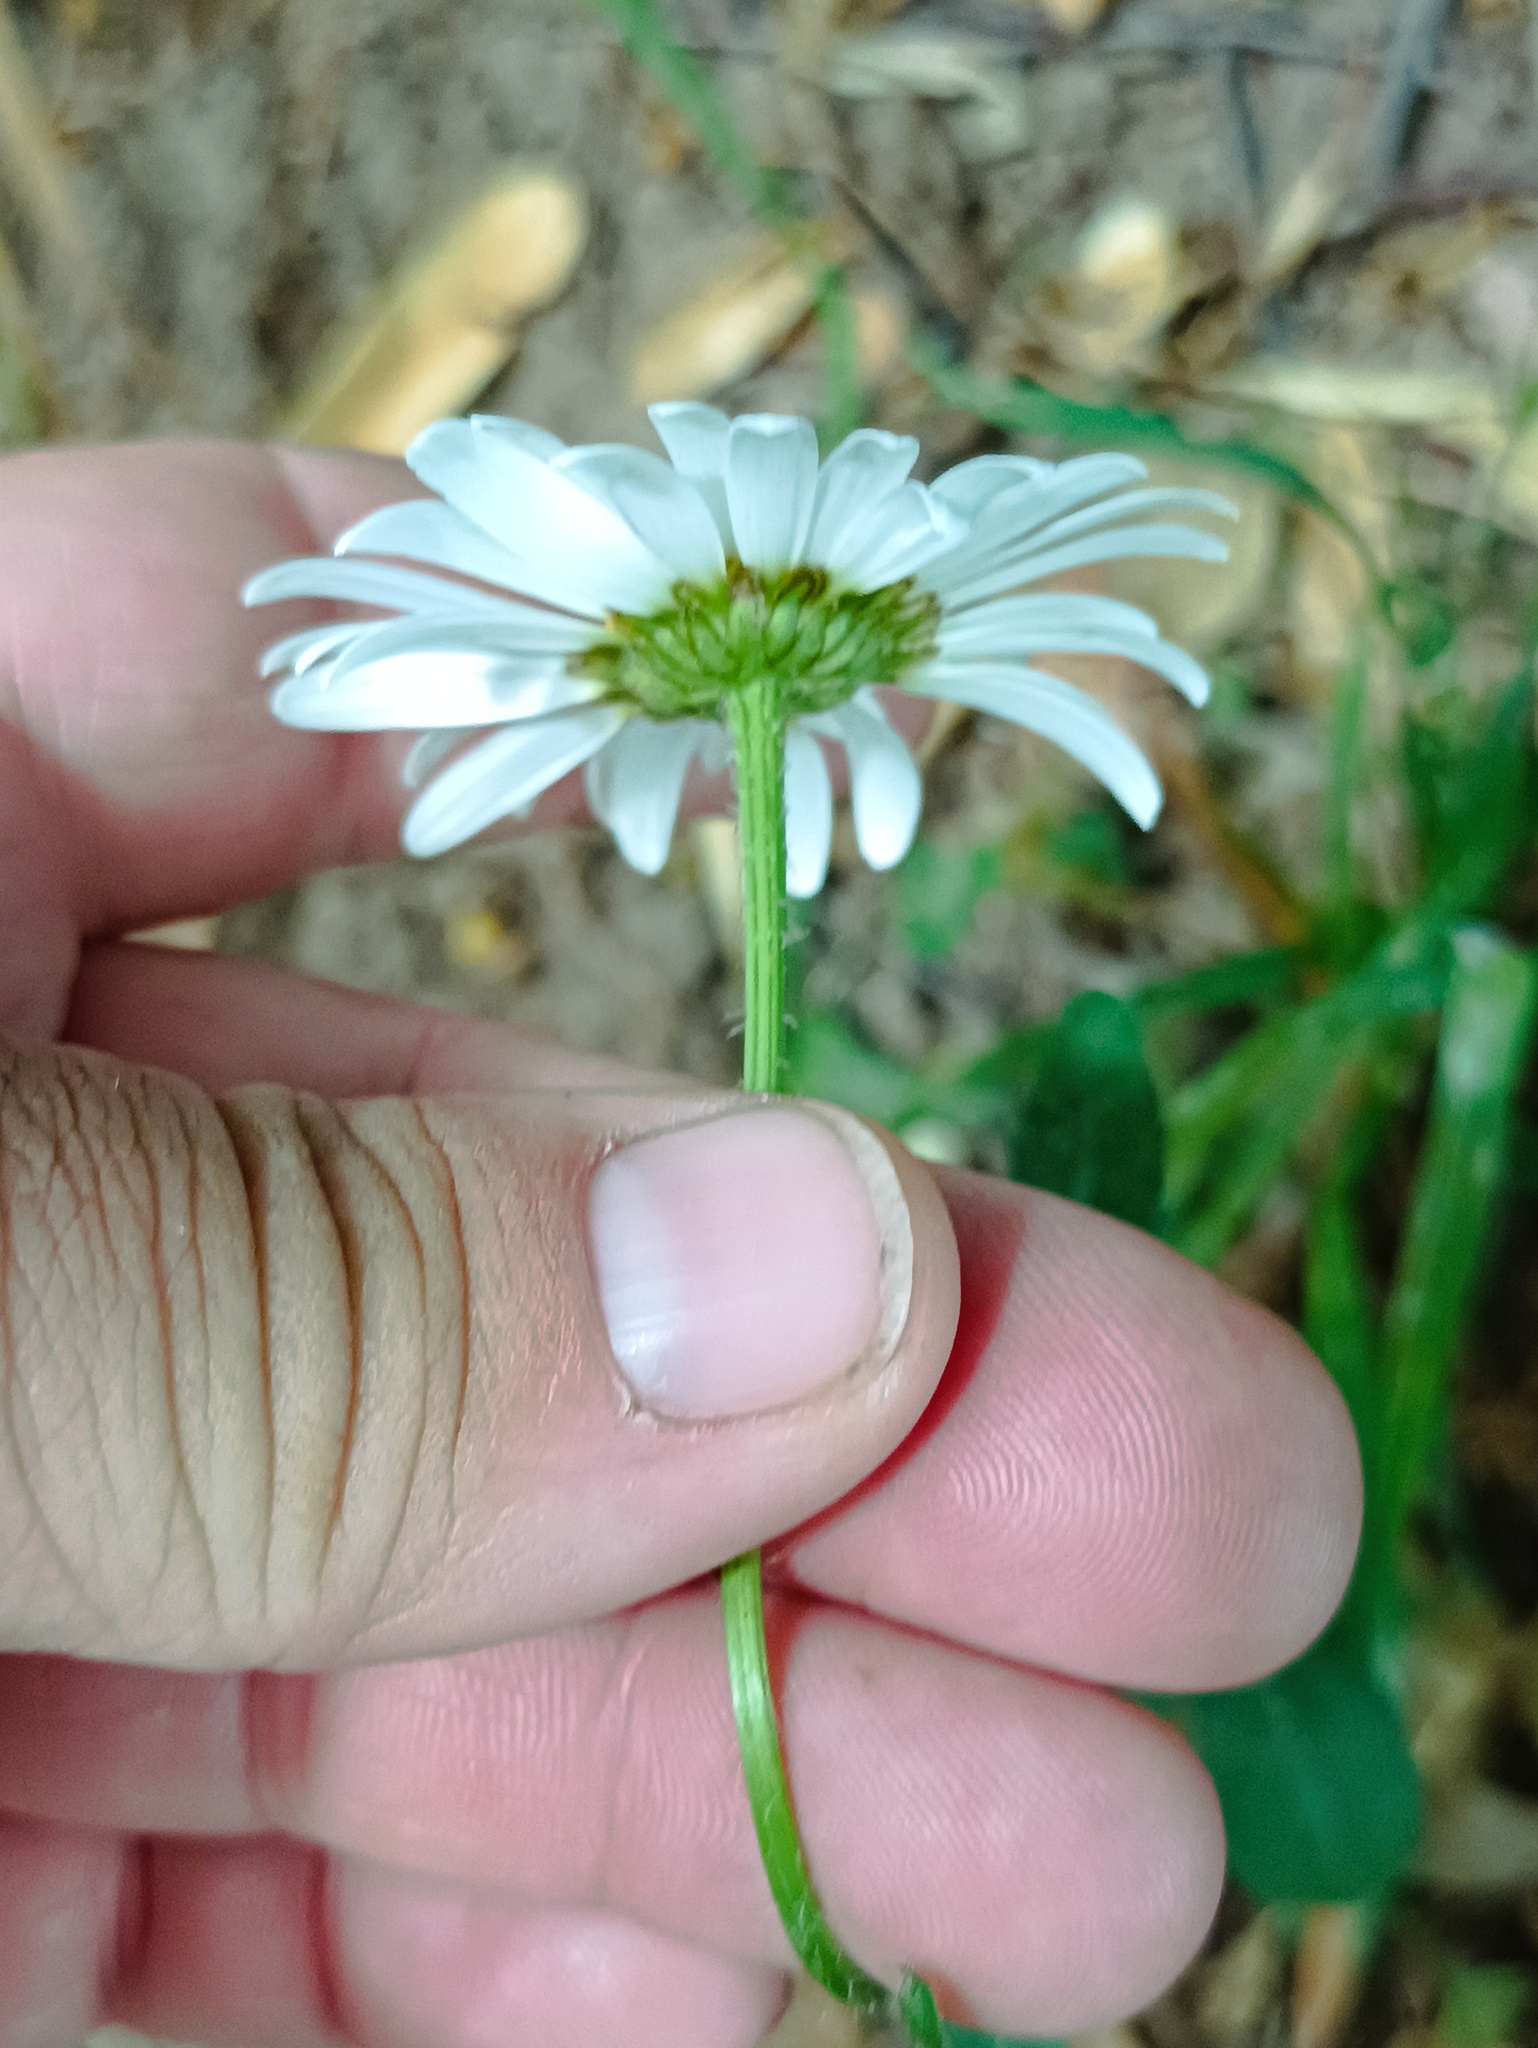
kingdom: Plantae
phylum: Tracheophyta
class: Magnoliopsida
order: Asterales
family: Asteraceae
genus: Leucanthemum
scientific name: Leucanthemum vulgare
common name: Oxeye daisy
